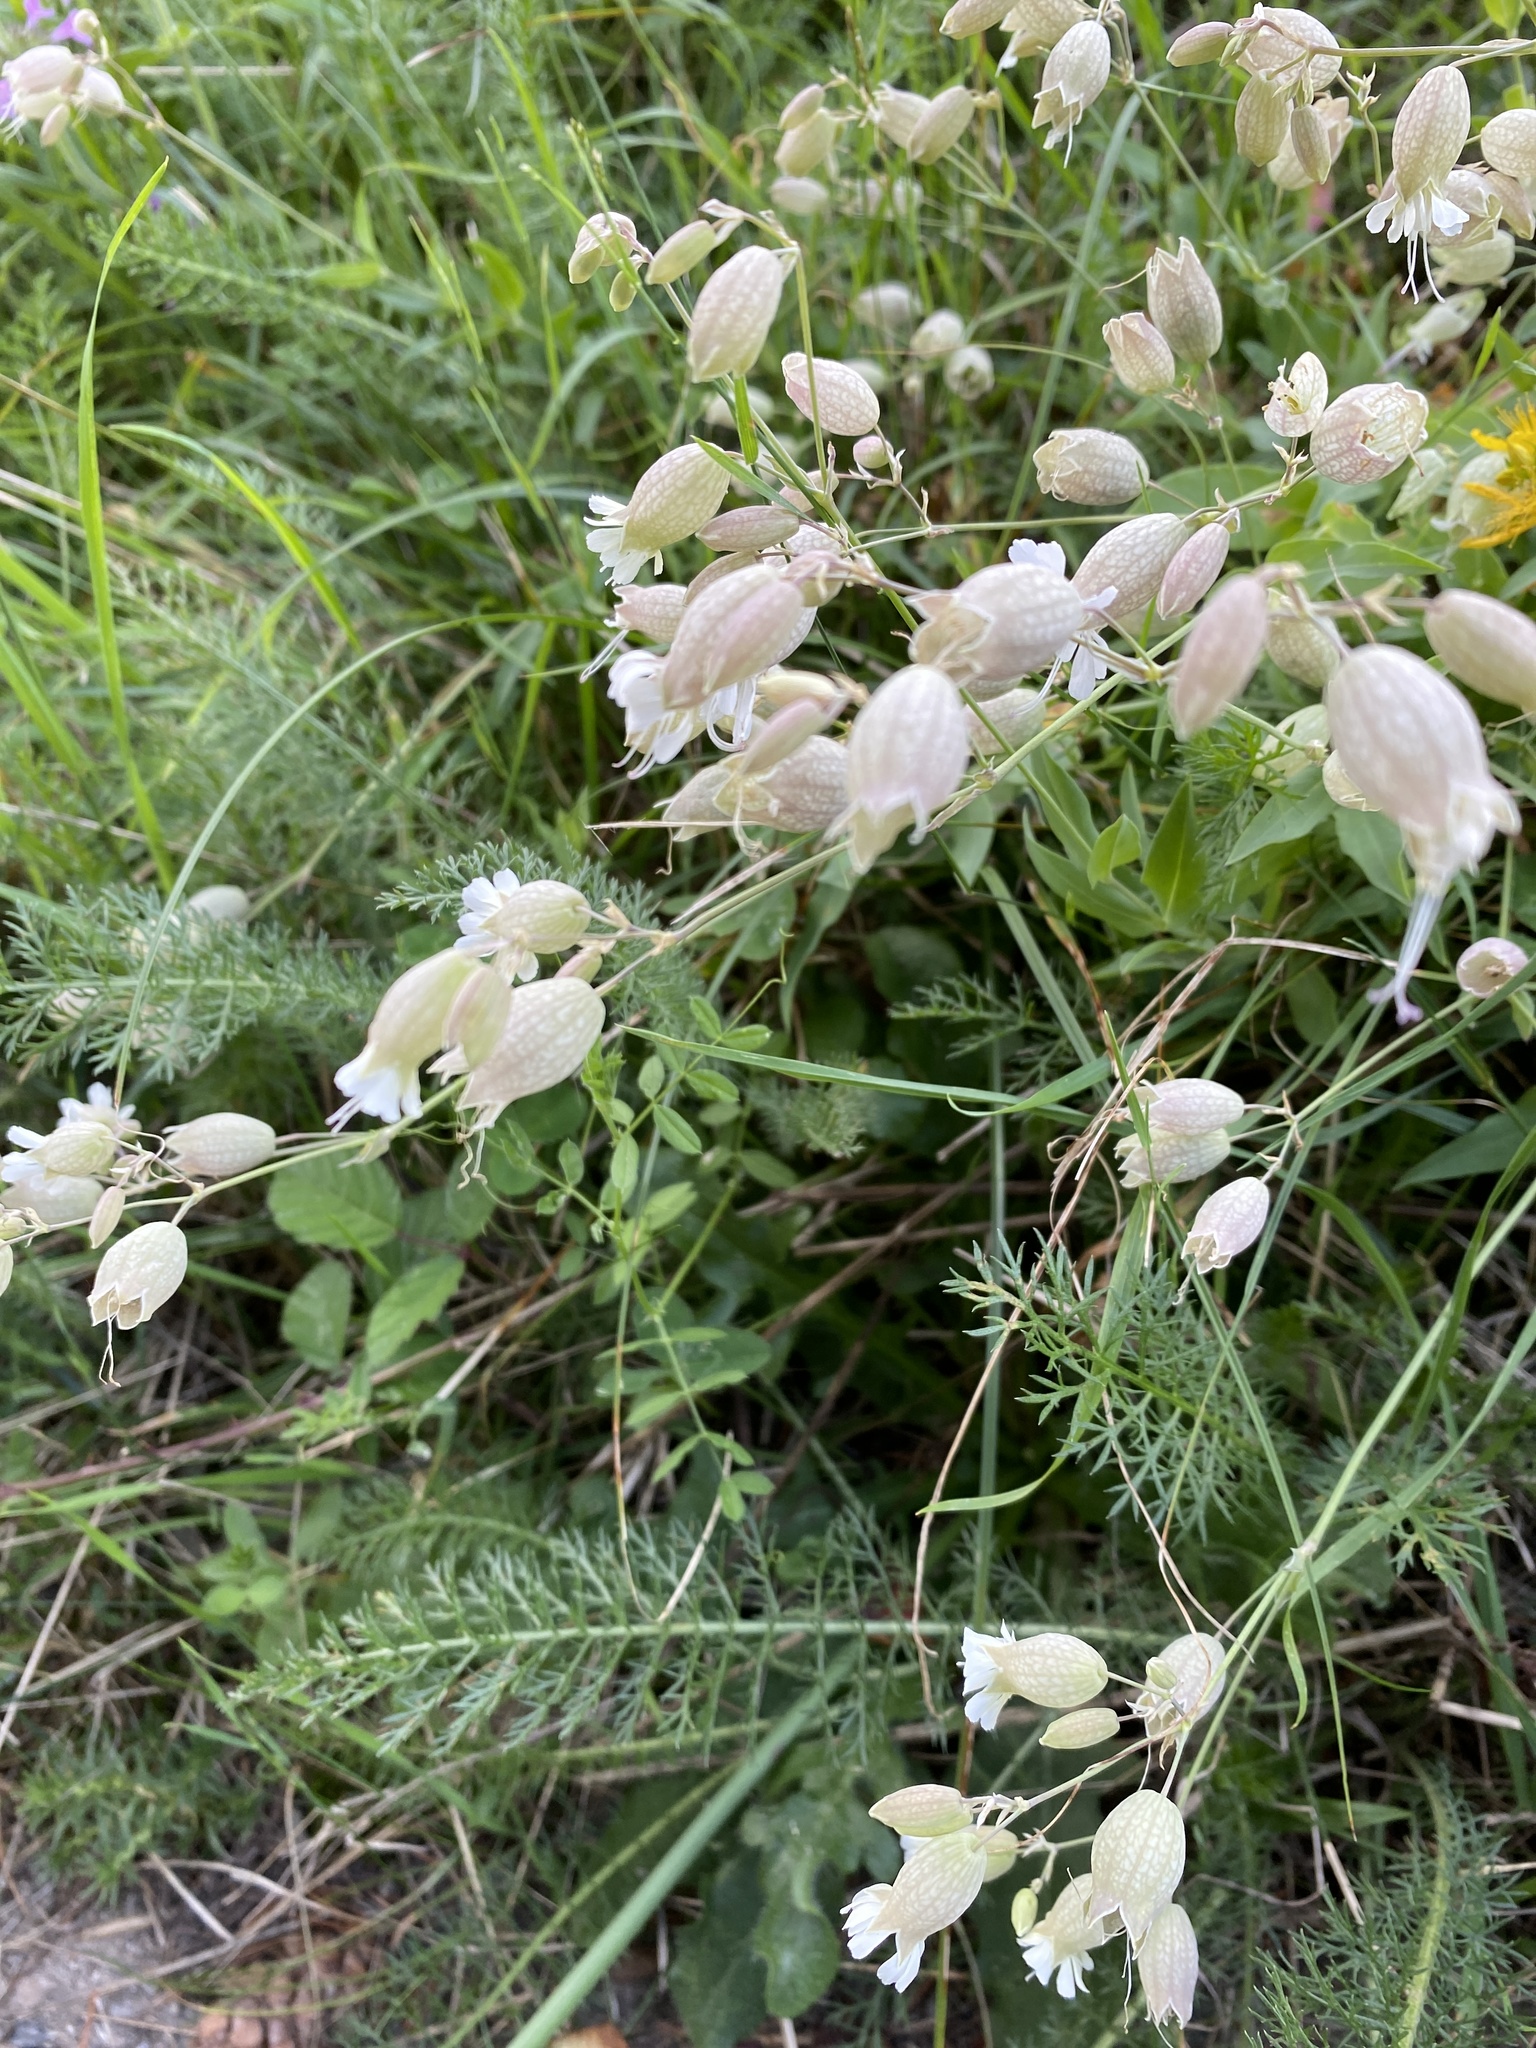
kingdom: Plantae
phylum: Tracheophyta
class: Magnoliopsida
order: Caryophyllales
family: Caryophyllaceae
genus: Silene
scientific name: Silene vulgaris
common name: Bladder campion
